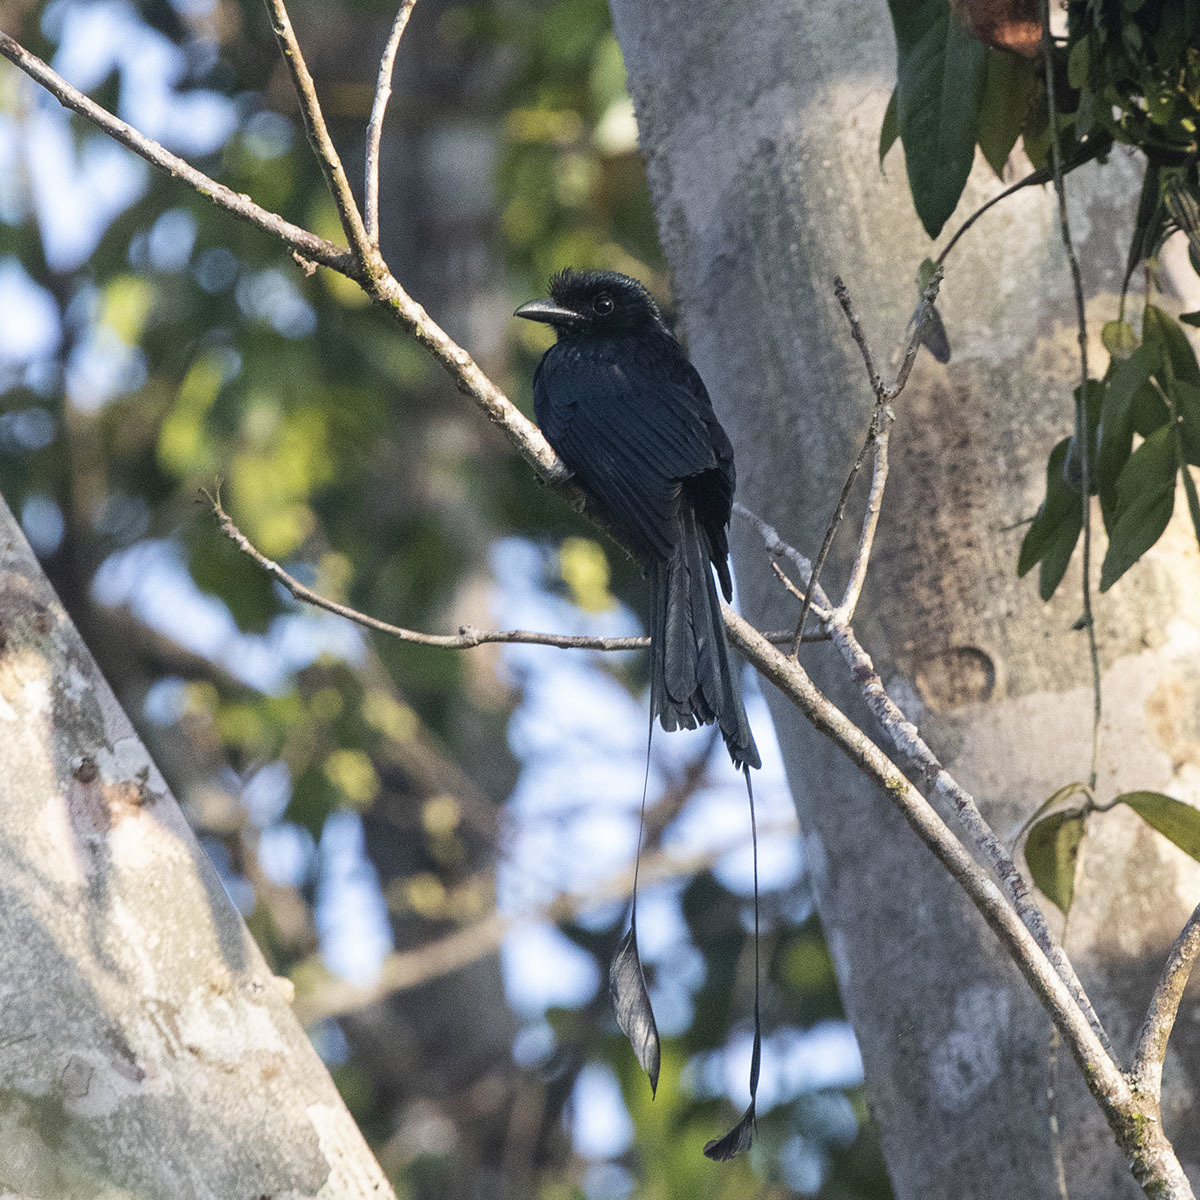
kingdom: Animalia
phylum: Chordata
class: Aves
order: Passeriformes
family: Dicruridae
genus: Dicrurus
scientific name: Dicrurus paradiseus
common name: Greater racket-tailed drongo
